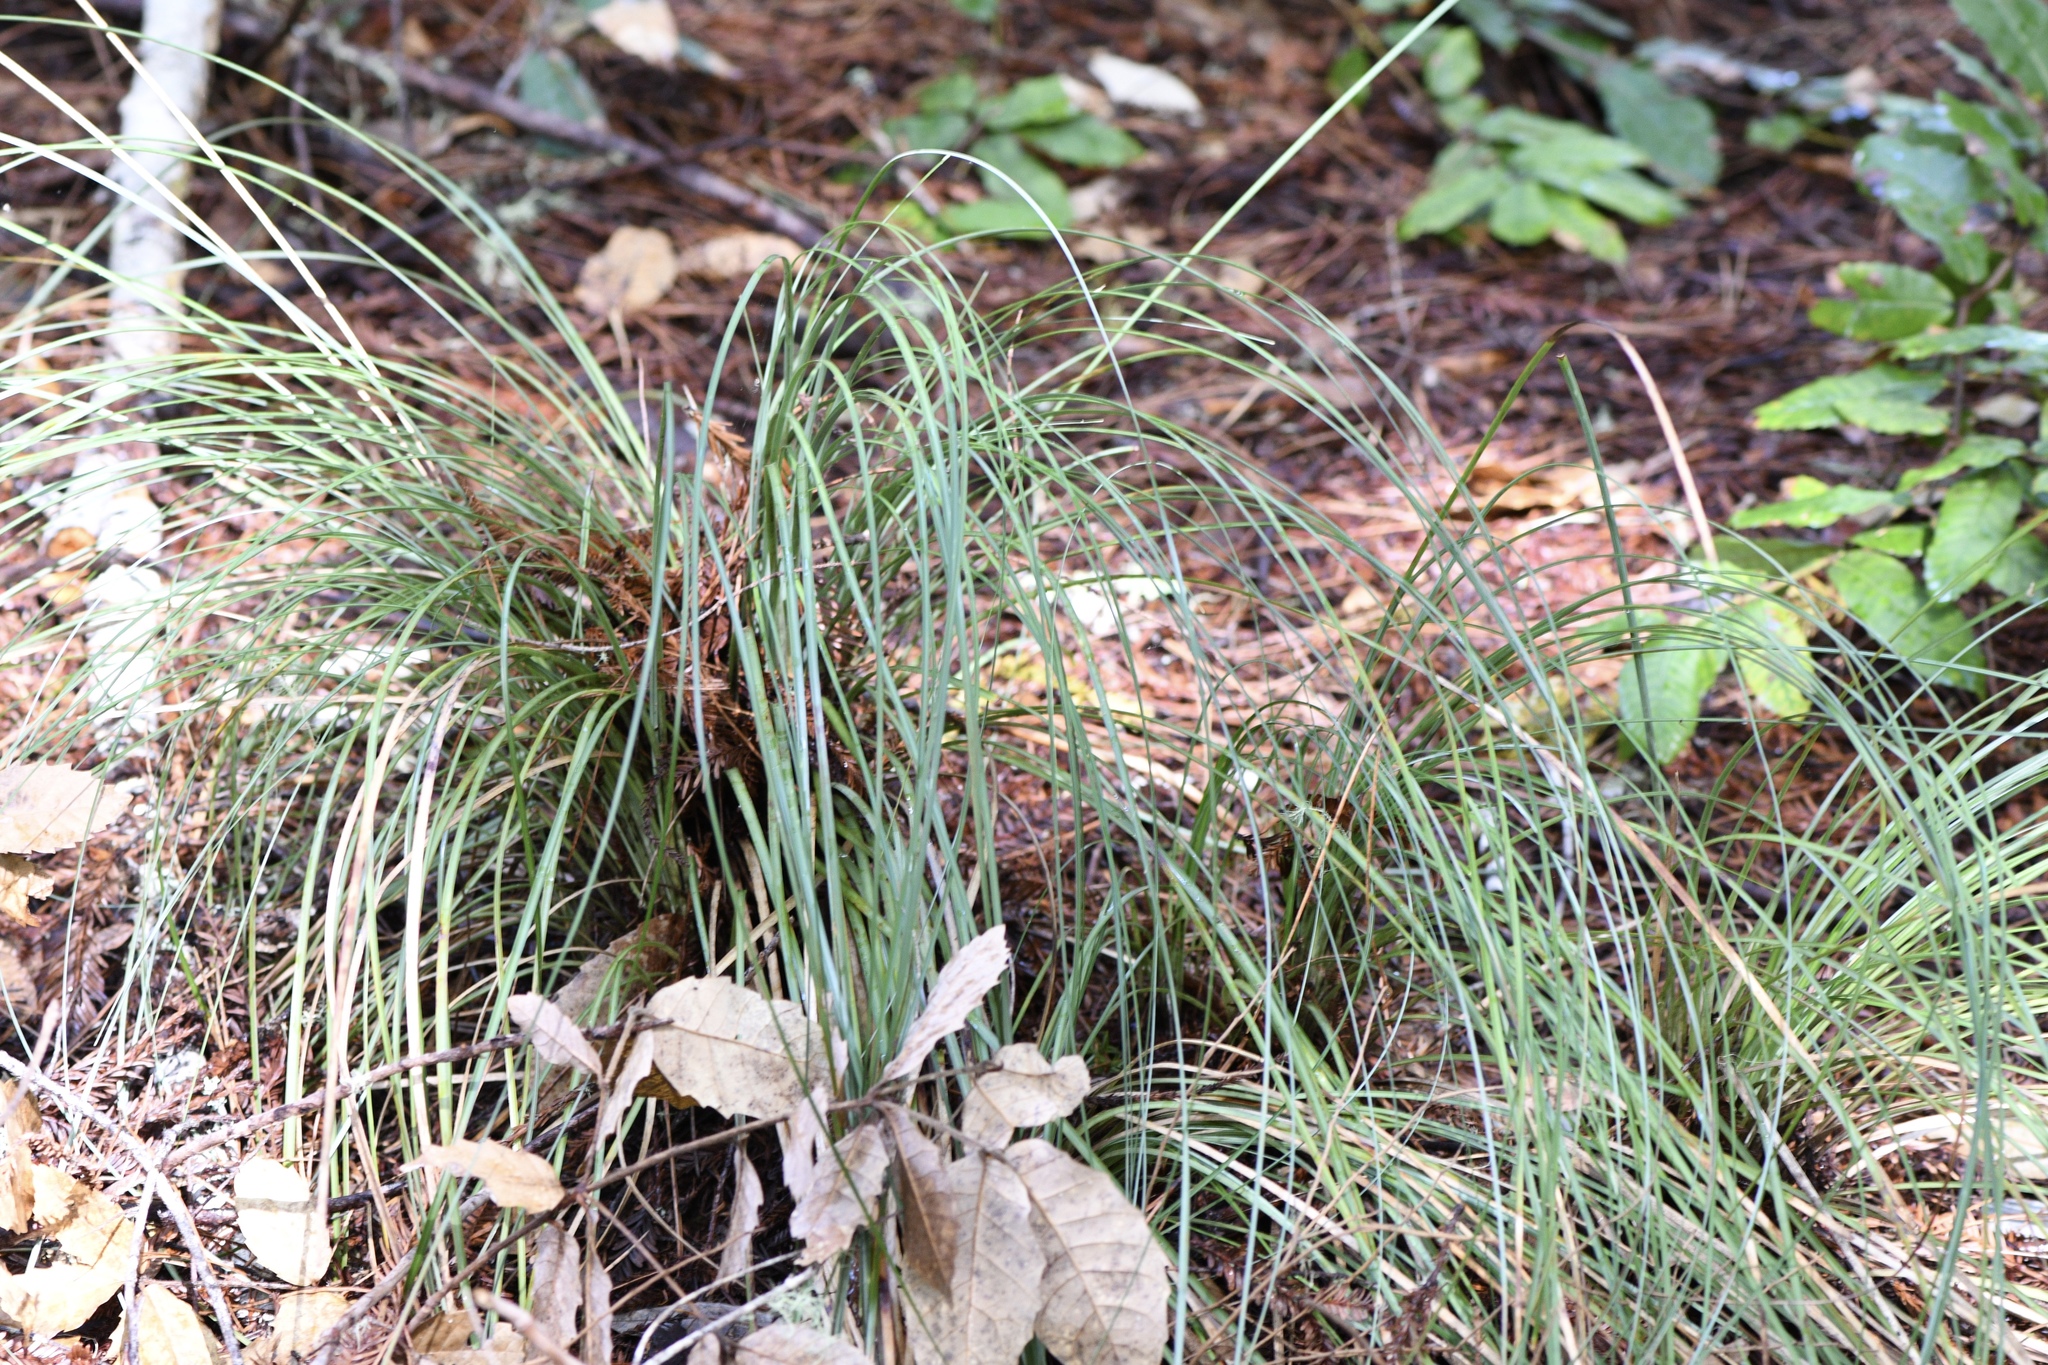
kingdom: Plantae
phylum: Tracheophyta
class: Liliopsida
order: Liliales
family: Melanthiaceae
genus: Xerophyllum
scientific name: Xerophyllum tenax
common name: Bear-grass
